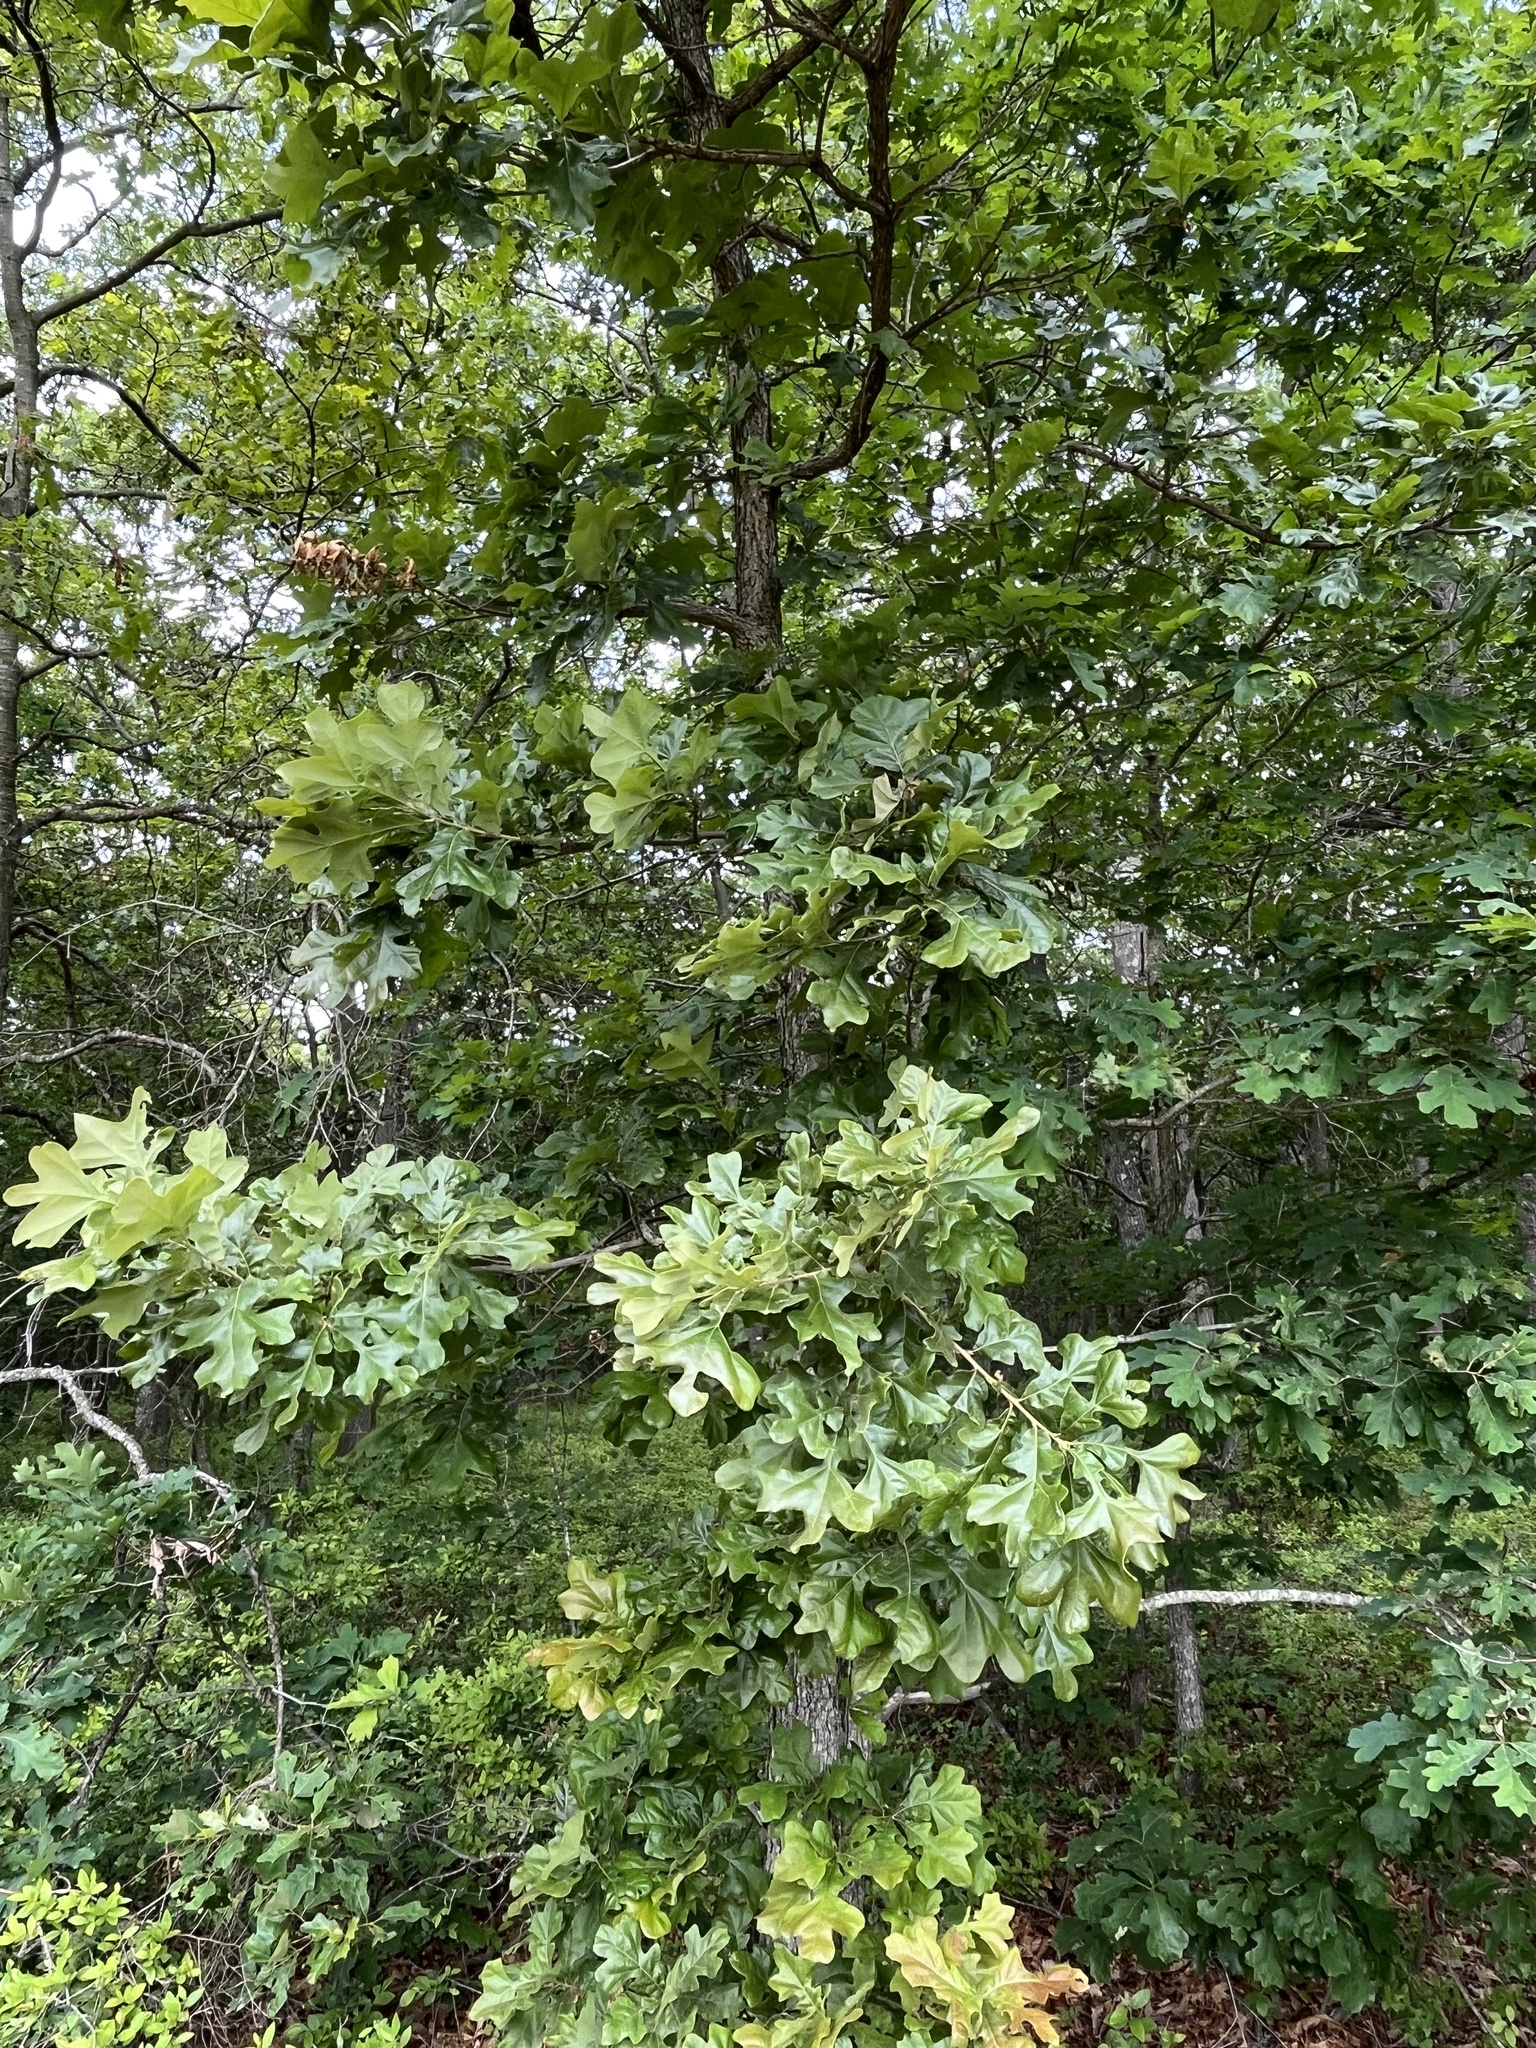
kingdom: Plantae
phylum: Tracheophyta
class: Magnoliopsida
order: Fagales
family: Fagaceae
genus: Quercus
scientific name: Quercus stellata
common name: Post oak
